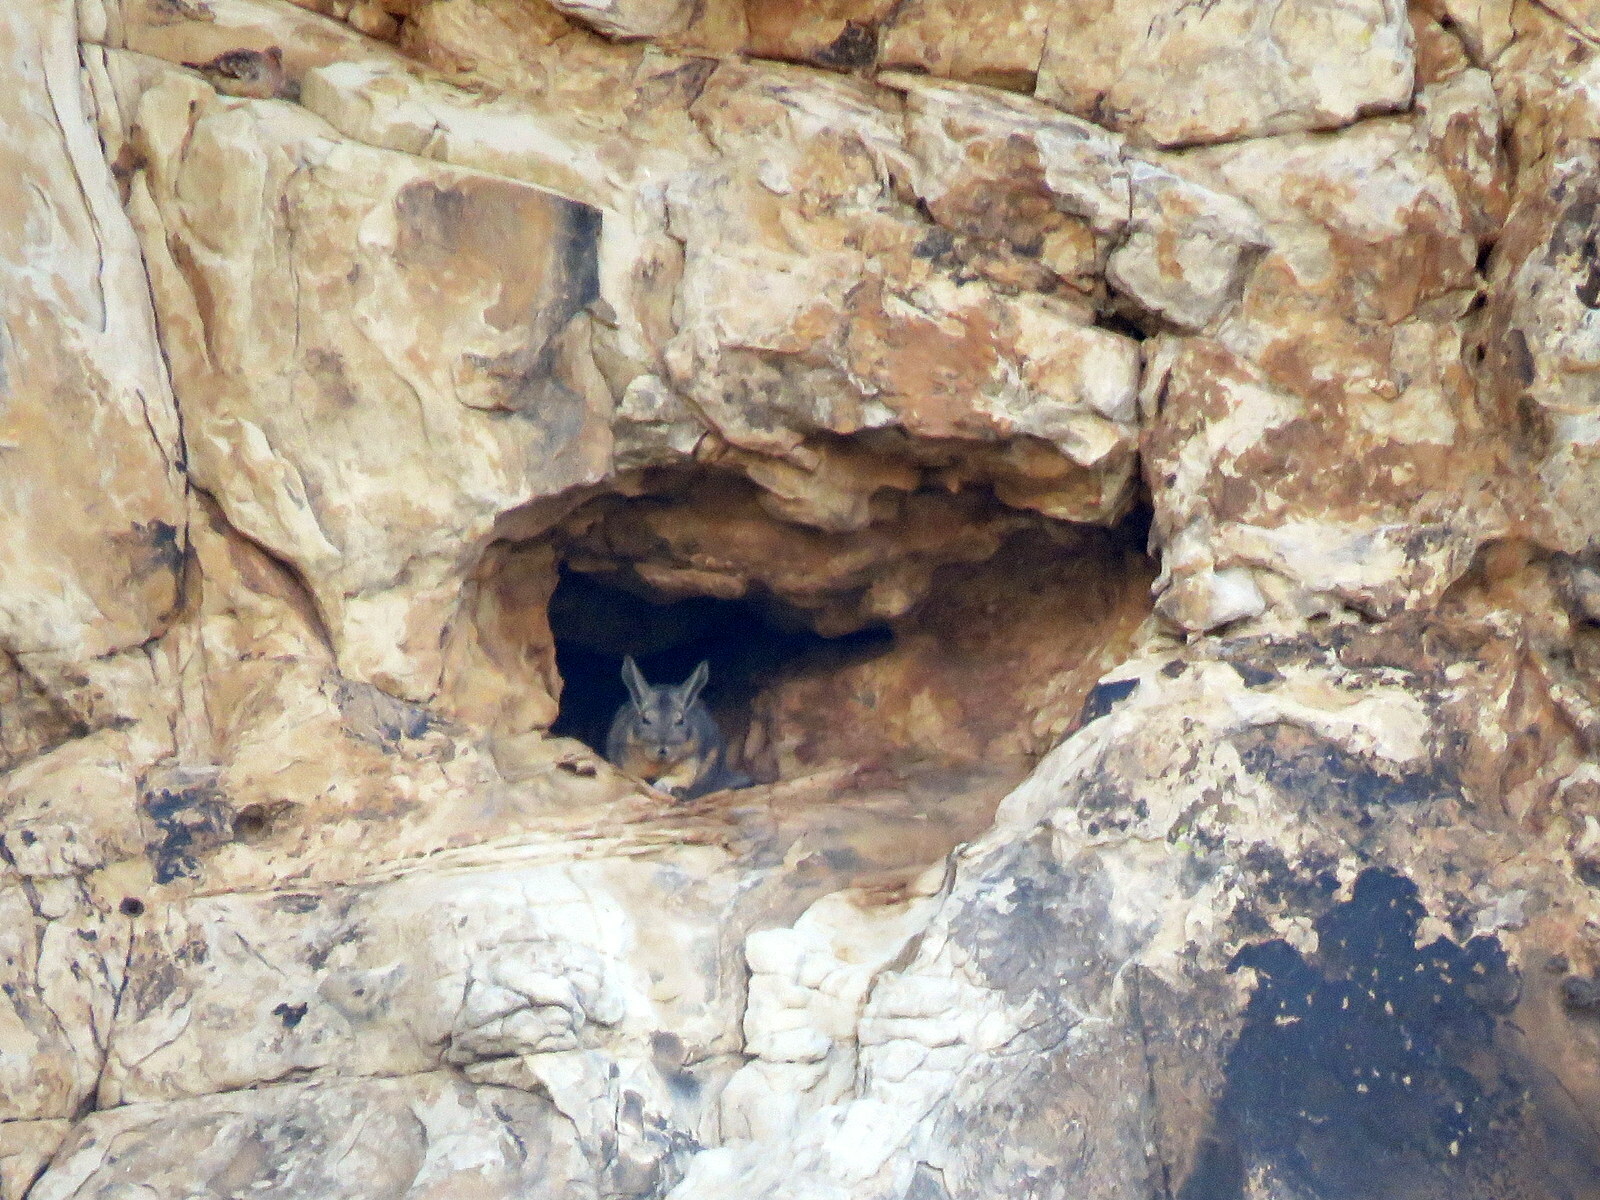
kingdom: Animalia
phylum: Chordata
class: Mammalia
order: Rodentia
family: Chinchillidae
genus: Lagidium
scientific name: Lagidium viscacia
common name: Southern viscacha
